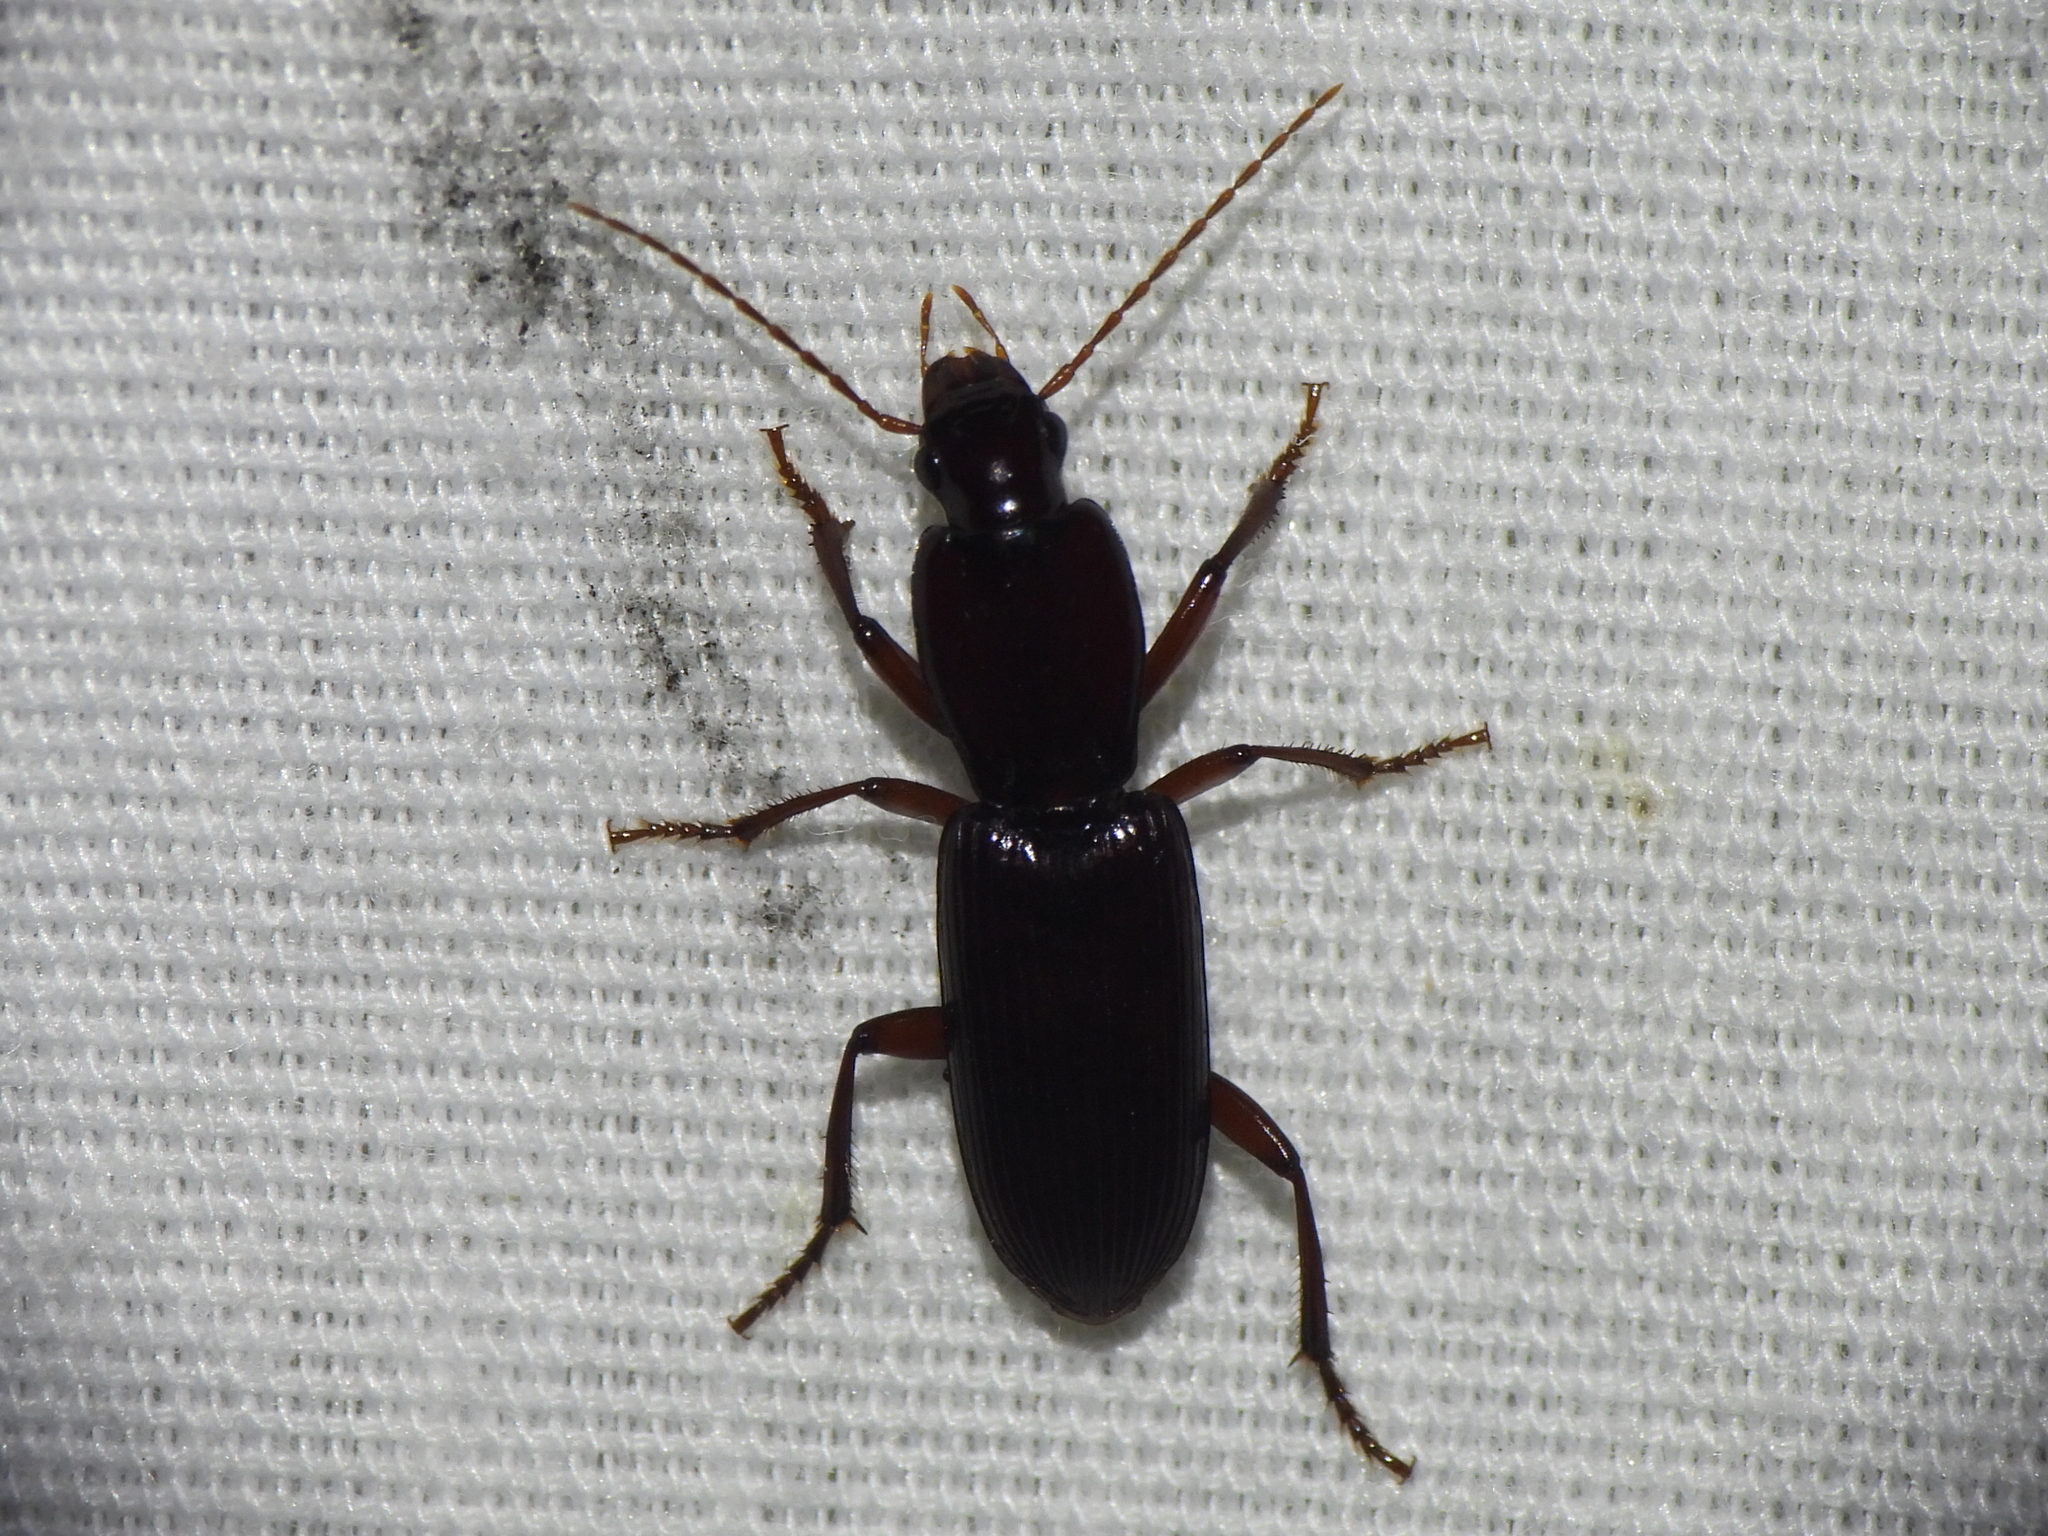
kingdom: Animalia
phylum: Arthropoda
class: Insecta
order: Coleoptera
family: Carabidae
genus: Stenomorphus
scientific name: Stenomorphus californicus
